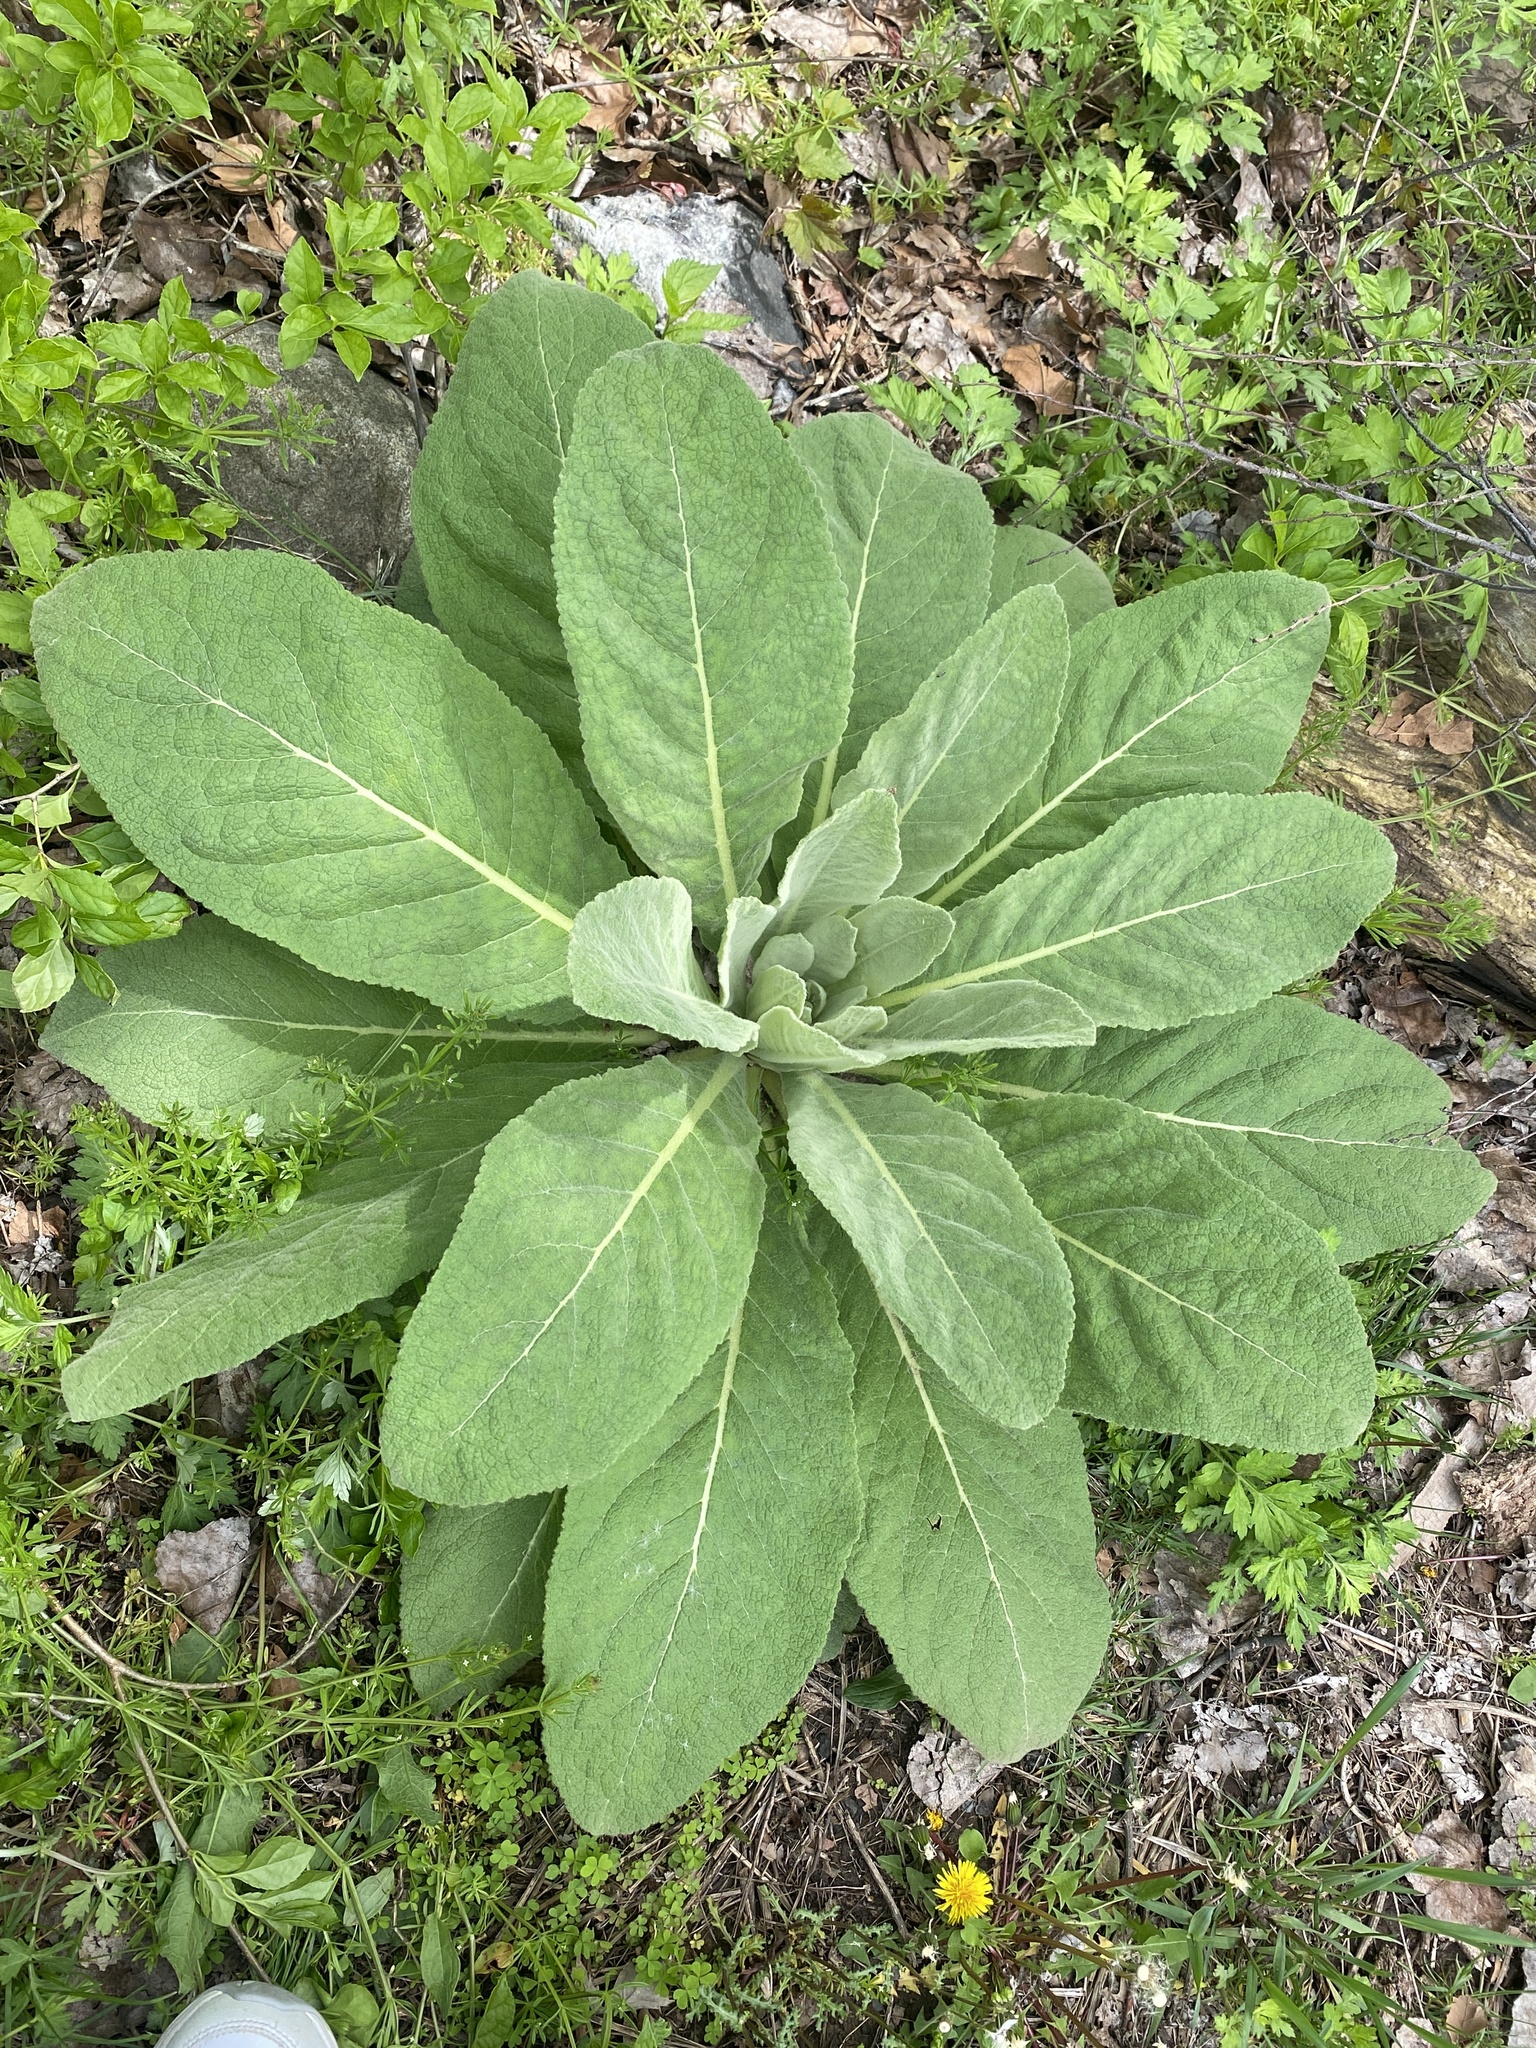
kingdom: Plantae
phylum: Tracheophyta
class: Magnoliopsida
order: Lamiales
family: Scrophulariaceae
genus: Verbascum
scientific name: Verbascum thapsus
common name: Common mullein
